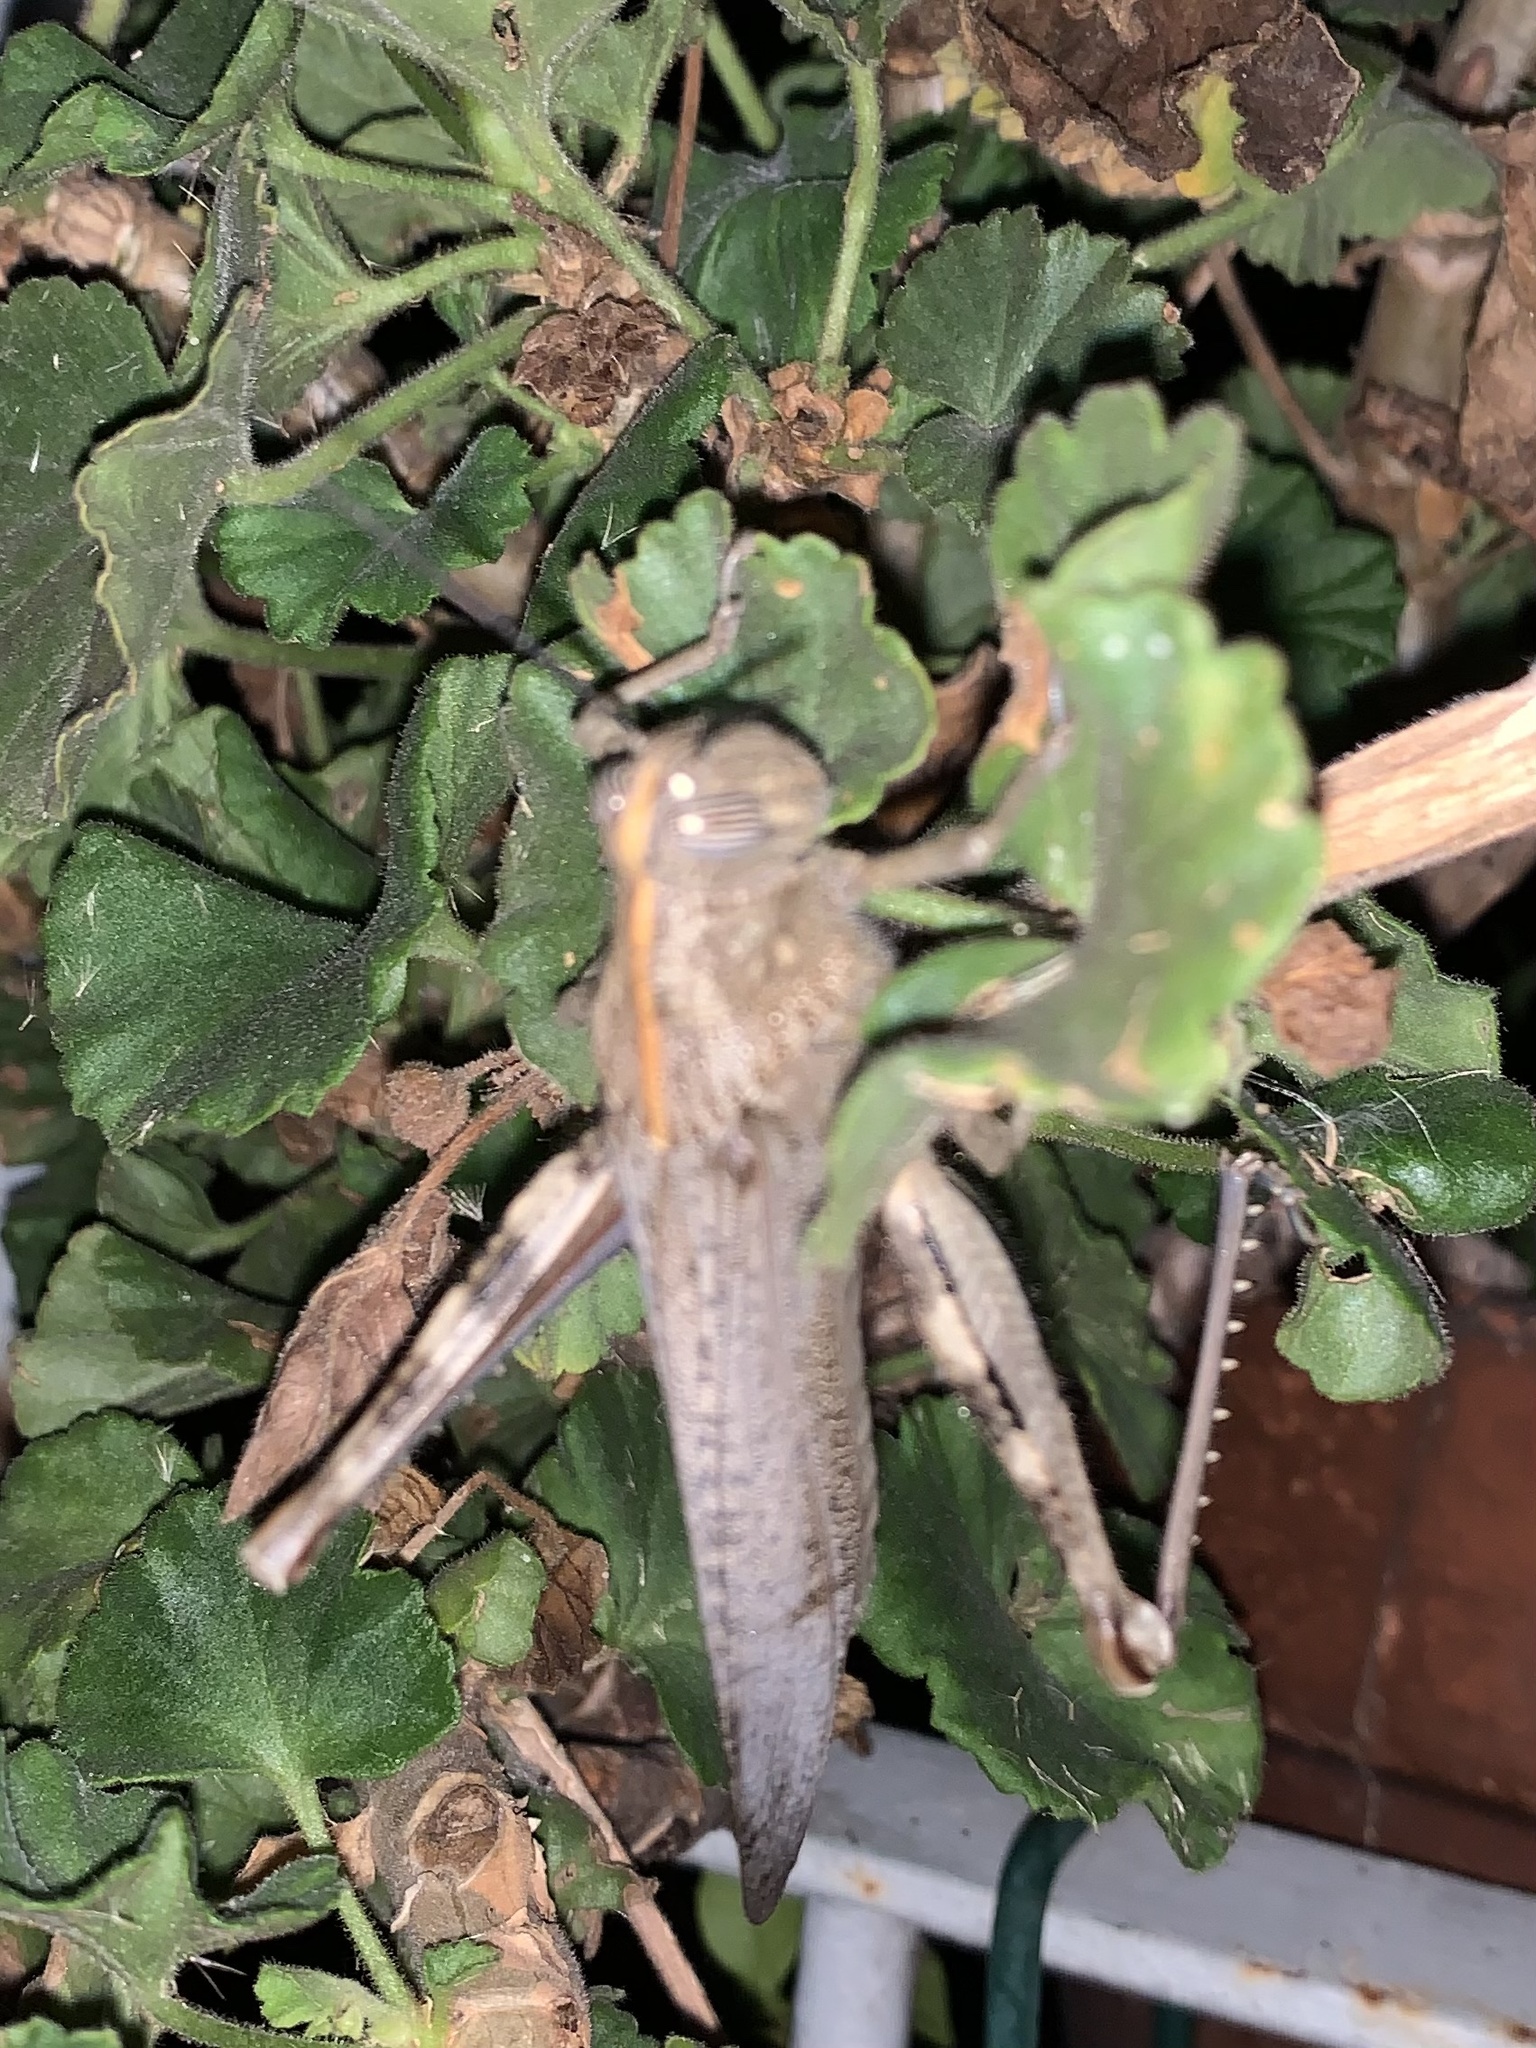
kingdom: Animalia
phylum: Arthropoda
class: Insecta
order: Orthoptera
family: Acrididae
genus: Anacridium
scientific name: Anacridium aegyptium
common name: Egyptian grasshopper
